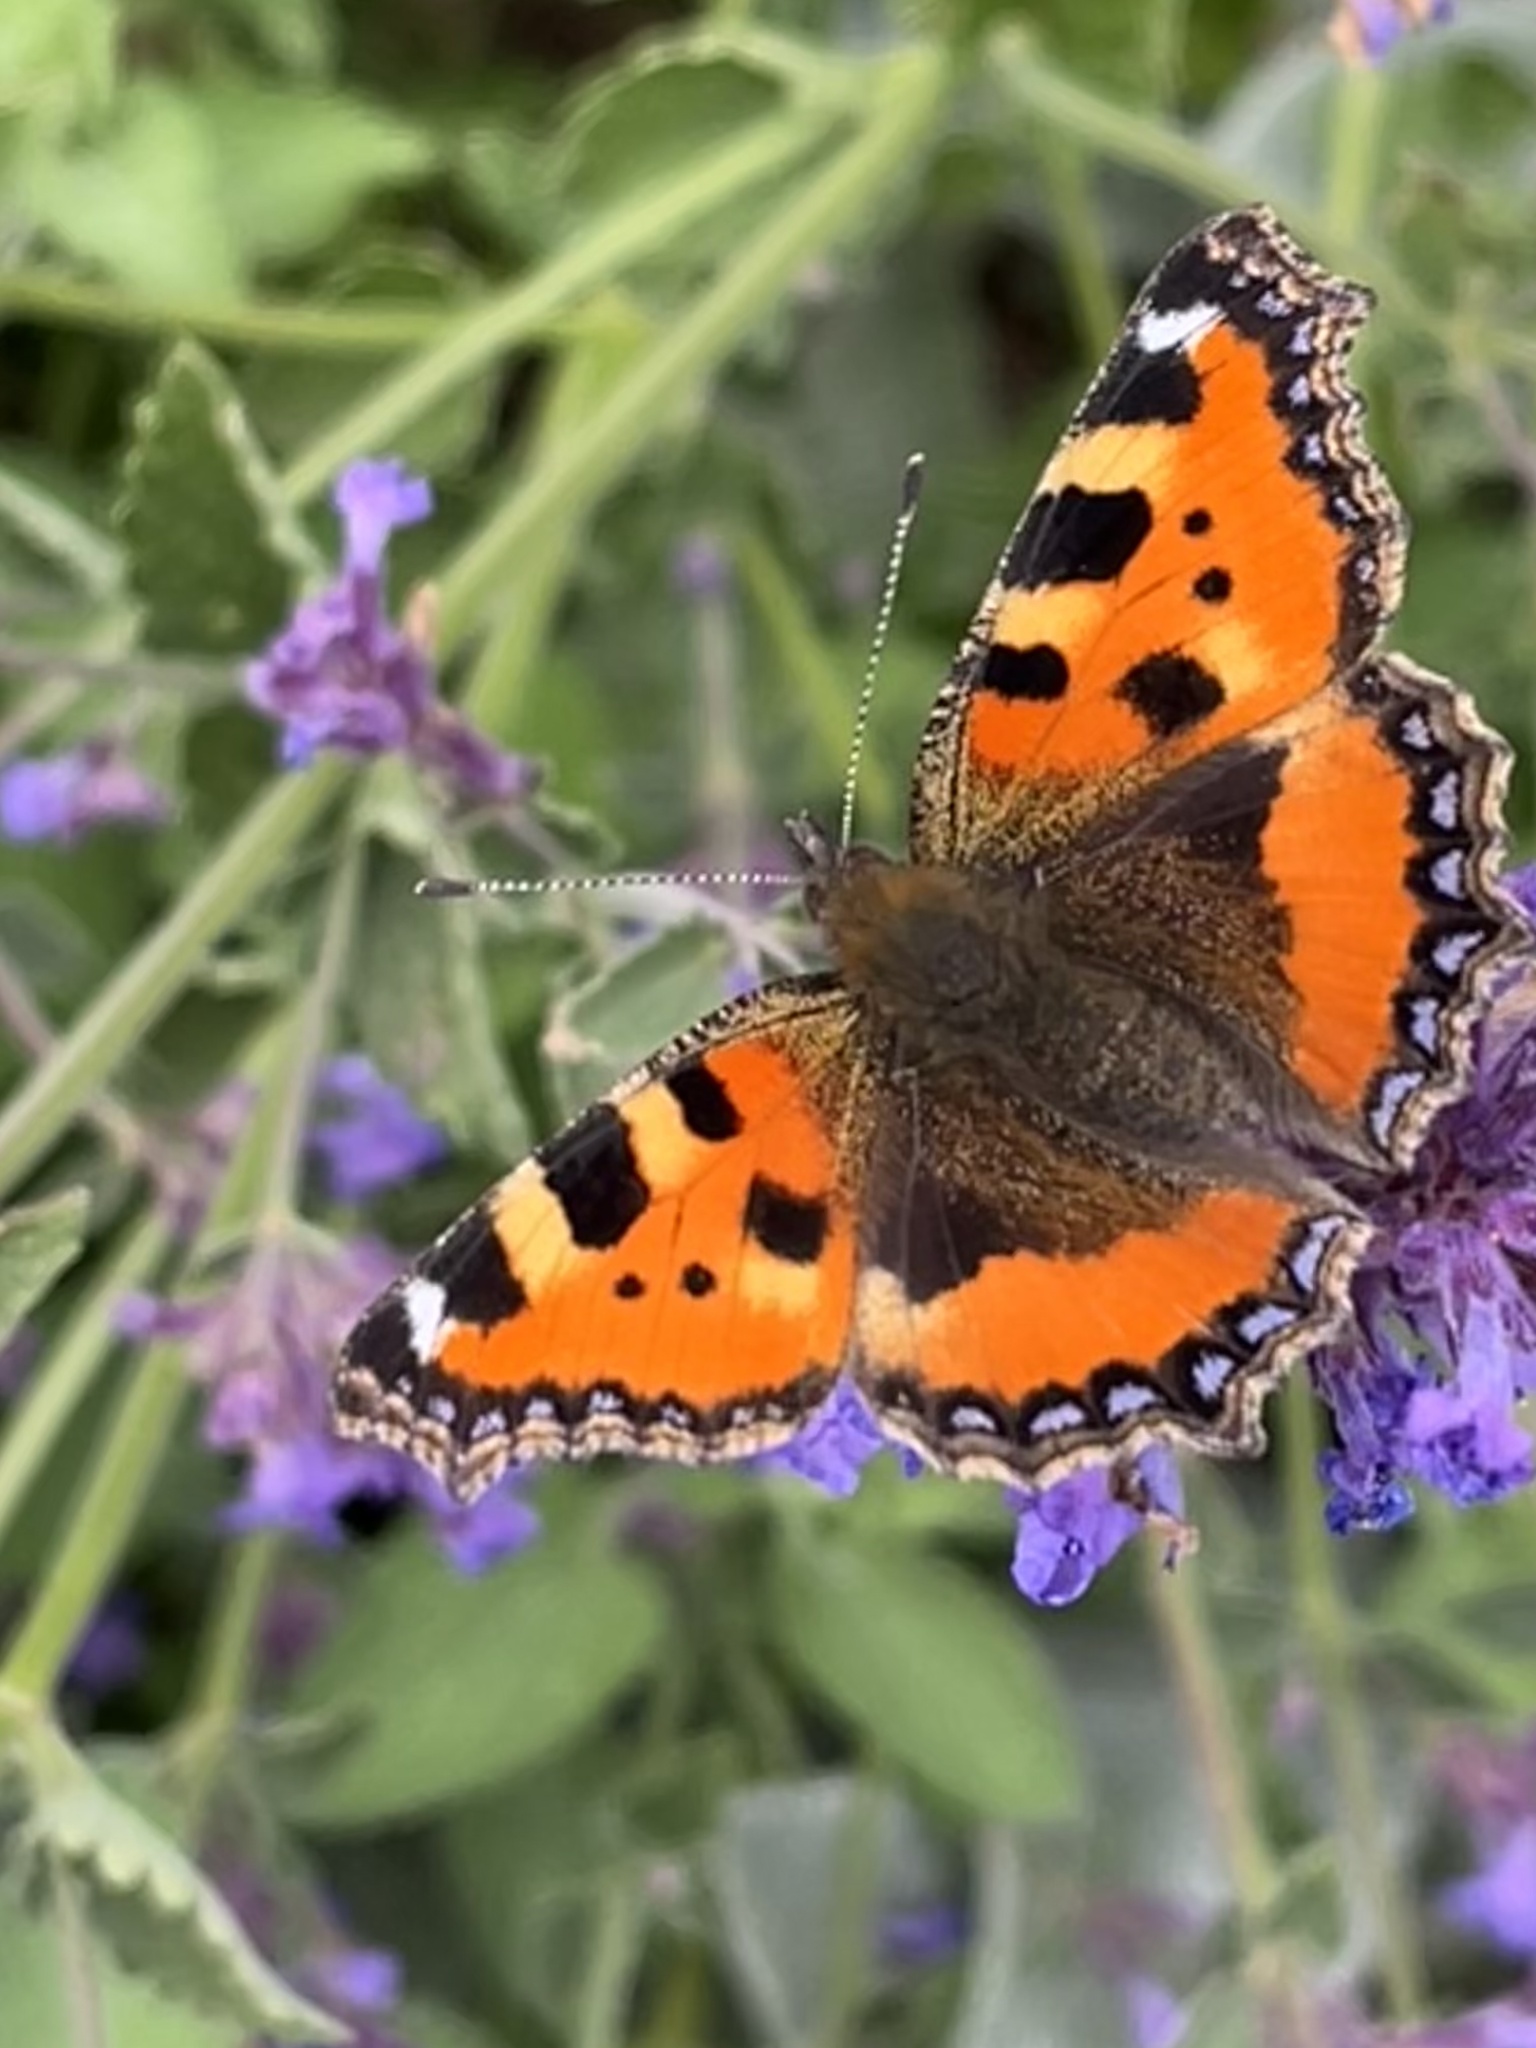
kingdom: Animalia
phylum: Arthropoda
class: Insecta
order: Lepidoptera
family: Nymphalidae
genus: Aglais
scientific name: Aglais urticae
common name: Small tortoiseshell
